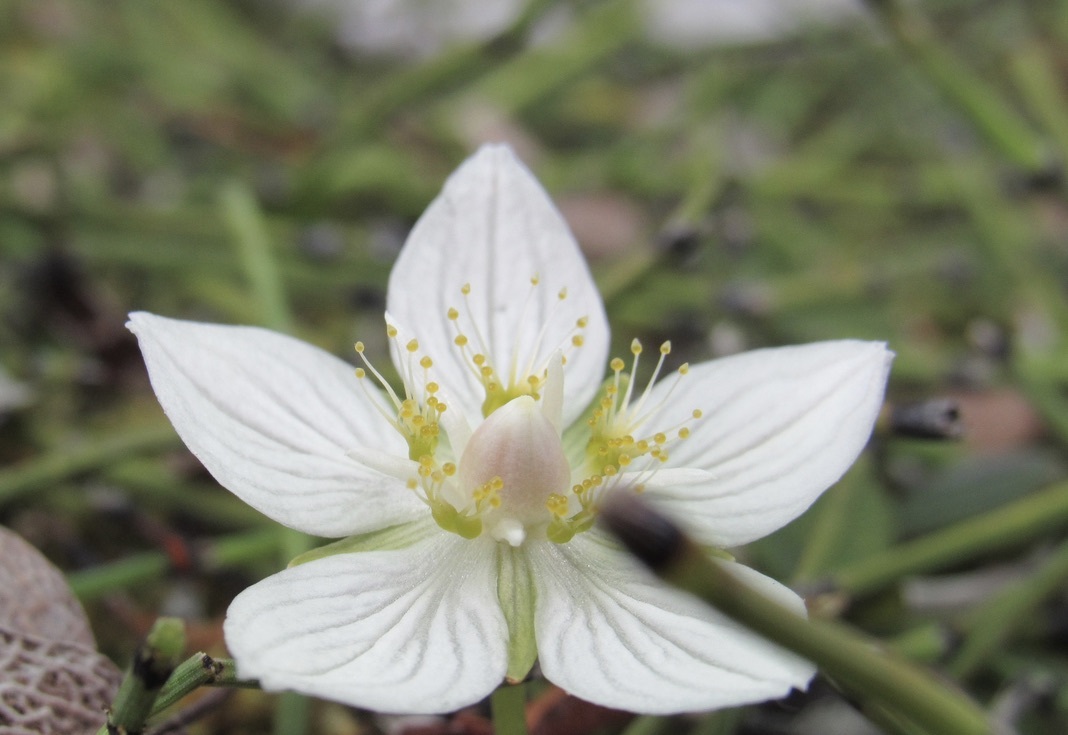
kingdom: Plantae
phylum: Tracheophyta
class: Magnoliopsida
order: Celastrales
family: Parnassiaceae
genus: Parnassia
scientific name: Parnassia palustris
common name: Grass-of-parnassus
